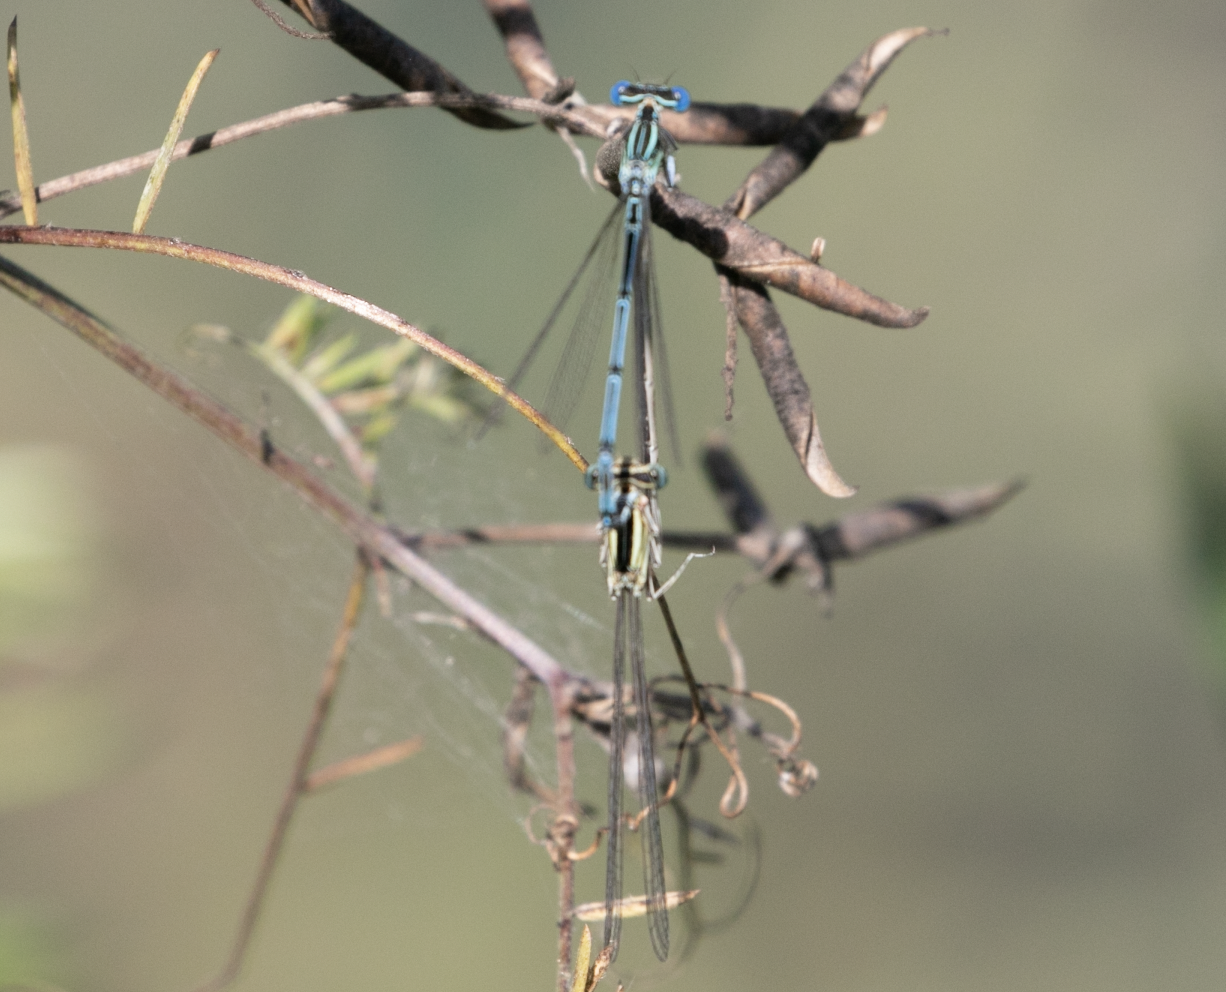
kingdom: Animalia
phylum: Arthropoda
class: Insecta
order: Odonata
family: Platycnemididae
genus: Platycnemis
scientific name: Platycnemis pennipes
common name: White-legged damselfly
